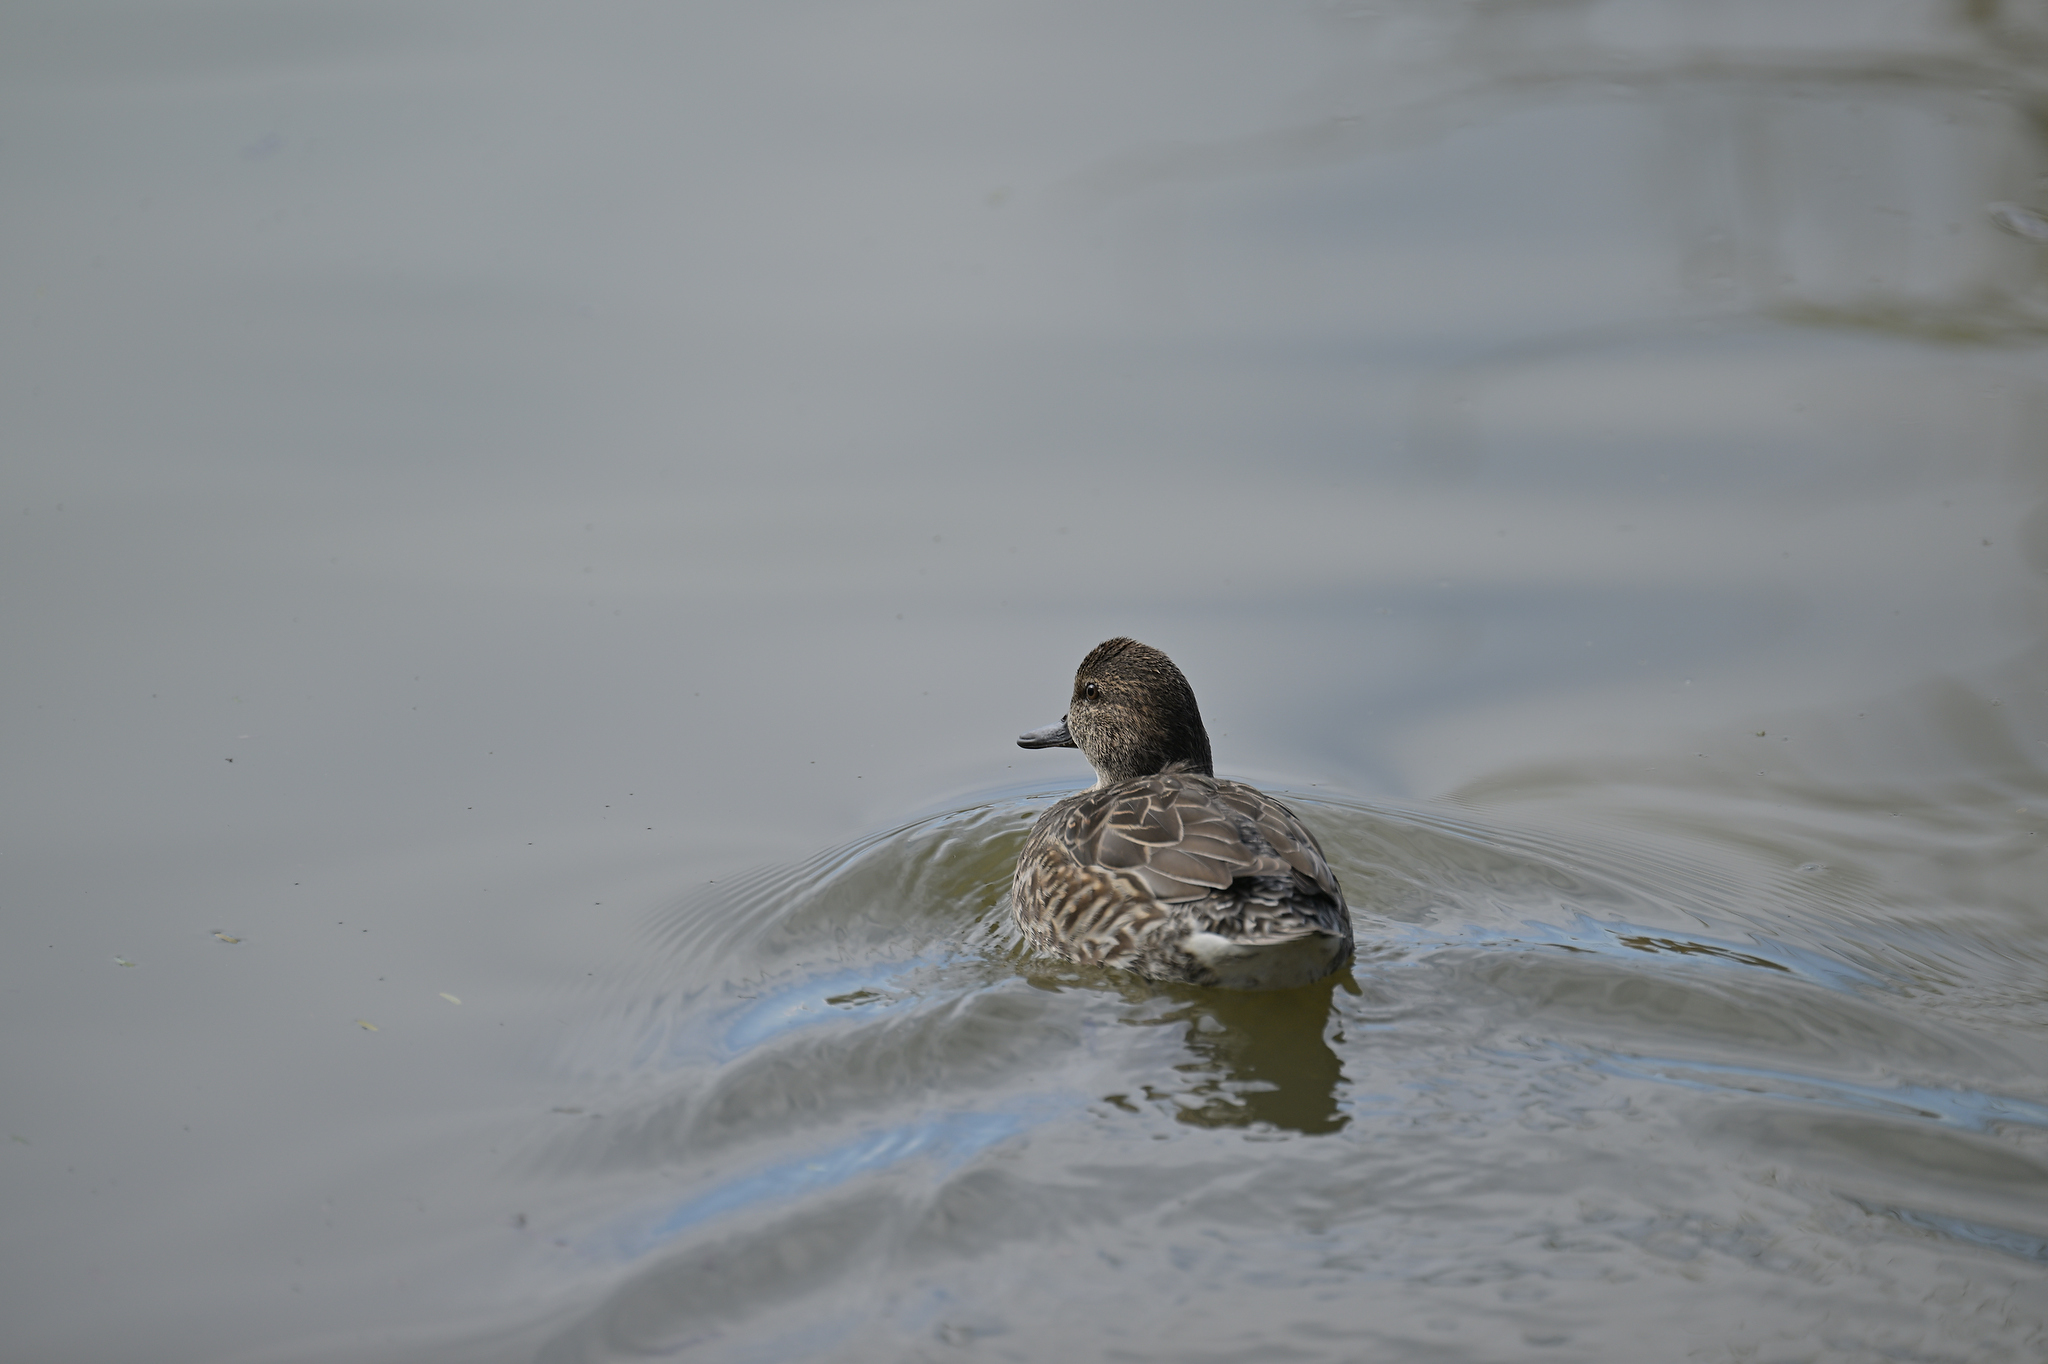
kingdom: Animalia
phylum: Chordata
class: Aves
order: Anseriformes
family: Anatidae
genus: Anas
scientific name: Anas crecca
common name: Eurasian teal
